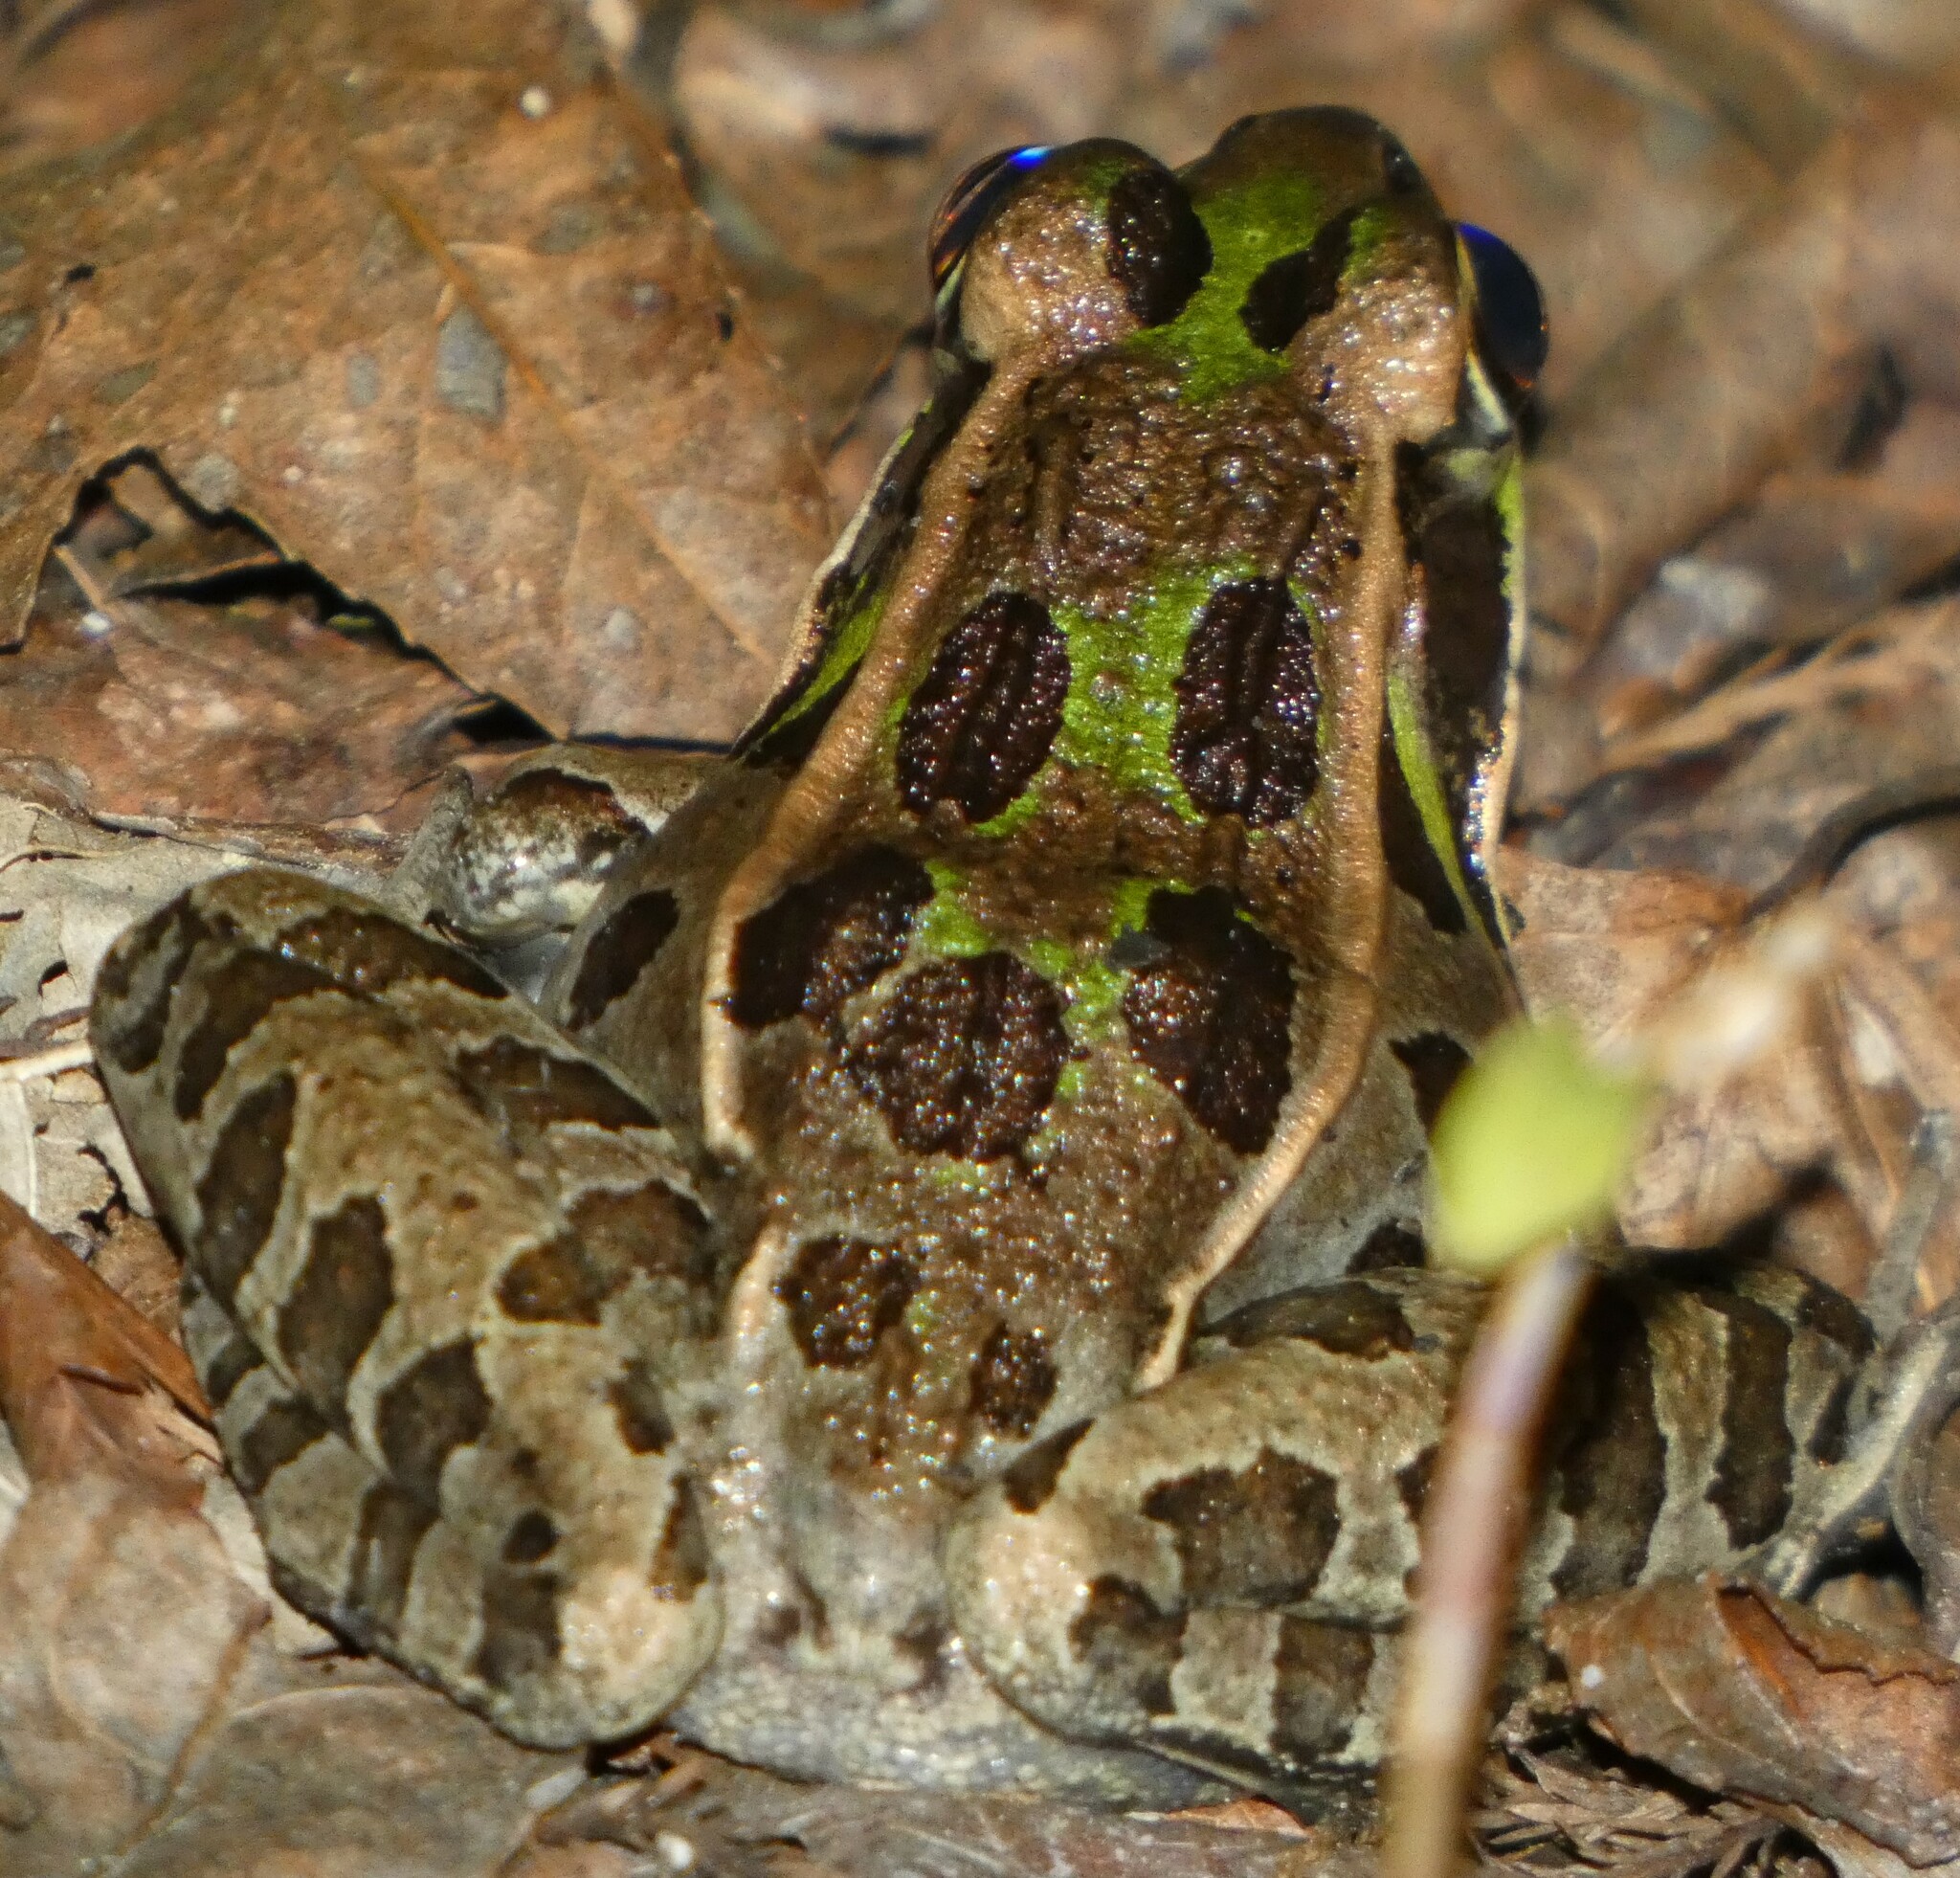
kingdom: Animalia
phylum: Chordata
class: Amphibia
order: Anura
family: Ranidae
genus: Lithobates
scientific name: Lithobates sphenocephalus
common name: Southern leopard frog
